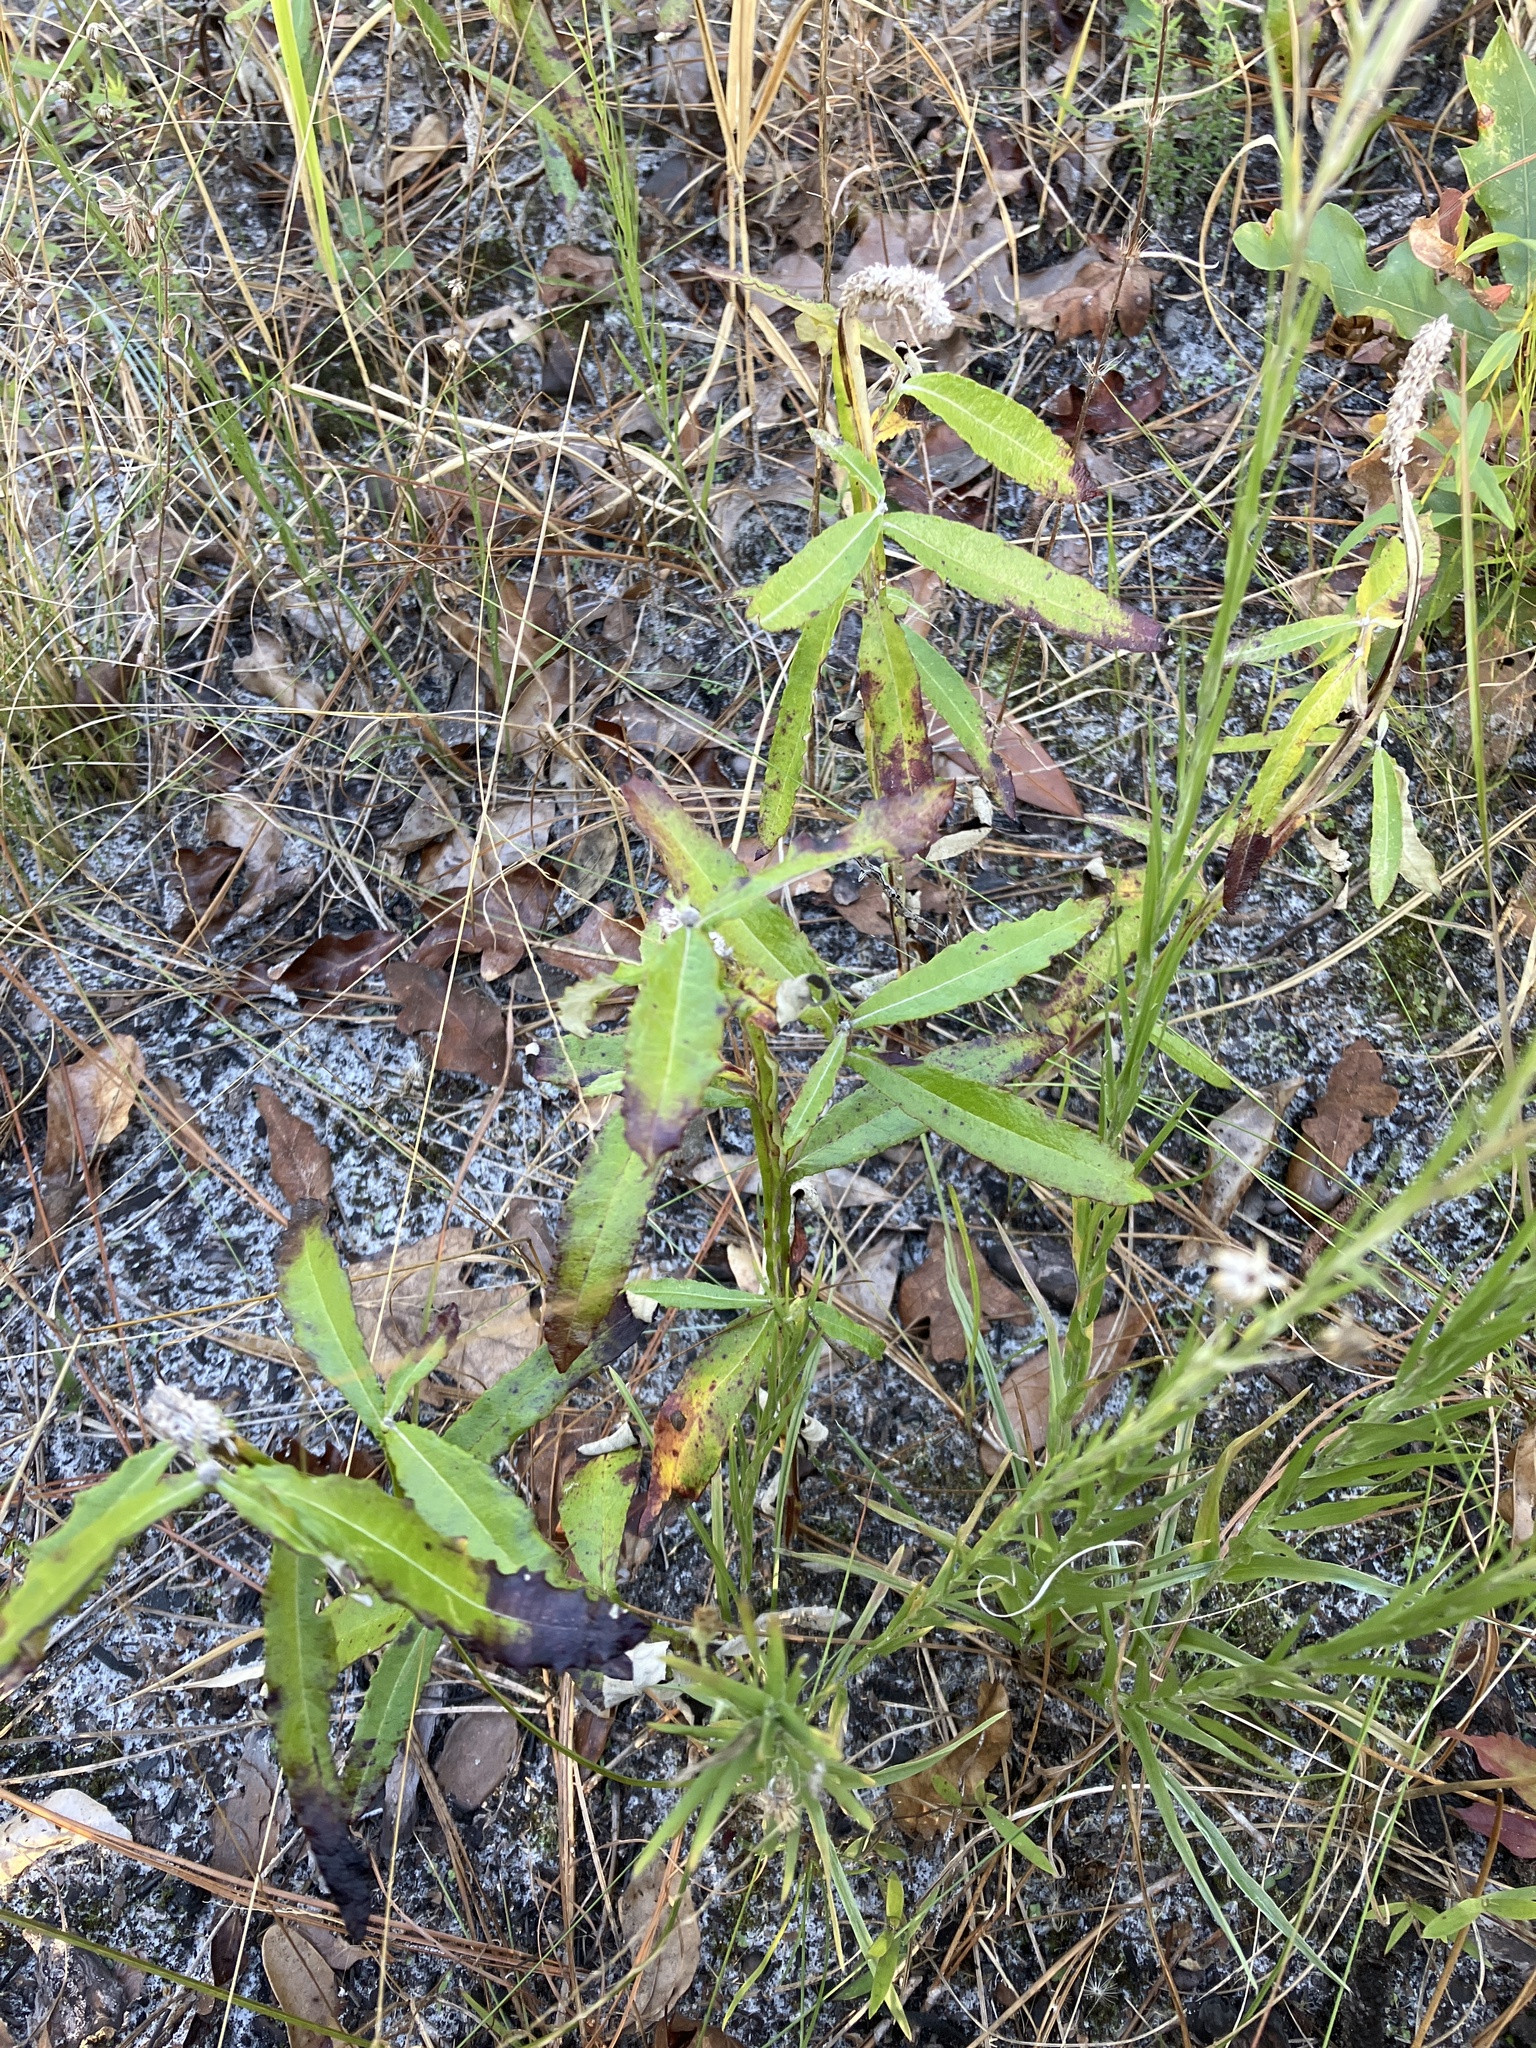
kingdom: Plantae
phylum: Tracheophyta
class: Magnoliopsida
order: Asterales
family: Asteraceae
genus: Pterocaulon
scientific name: Pterocaulon pycnostachyum
